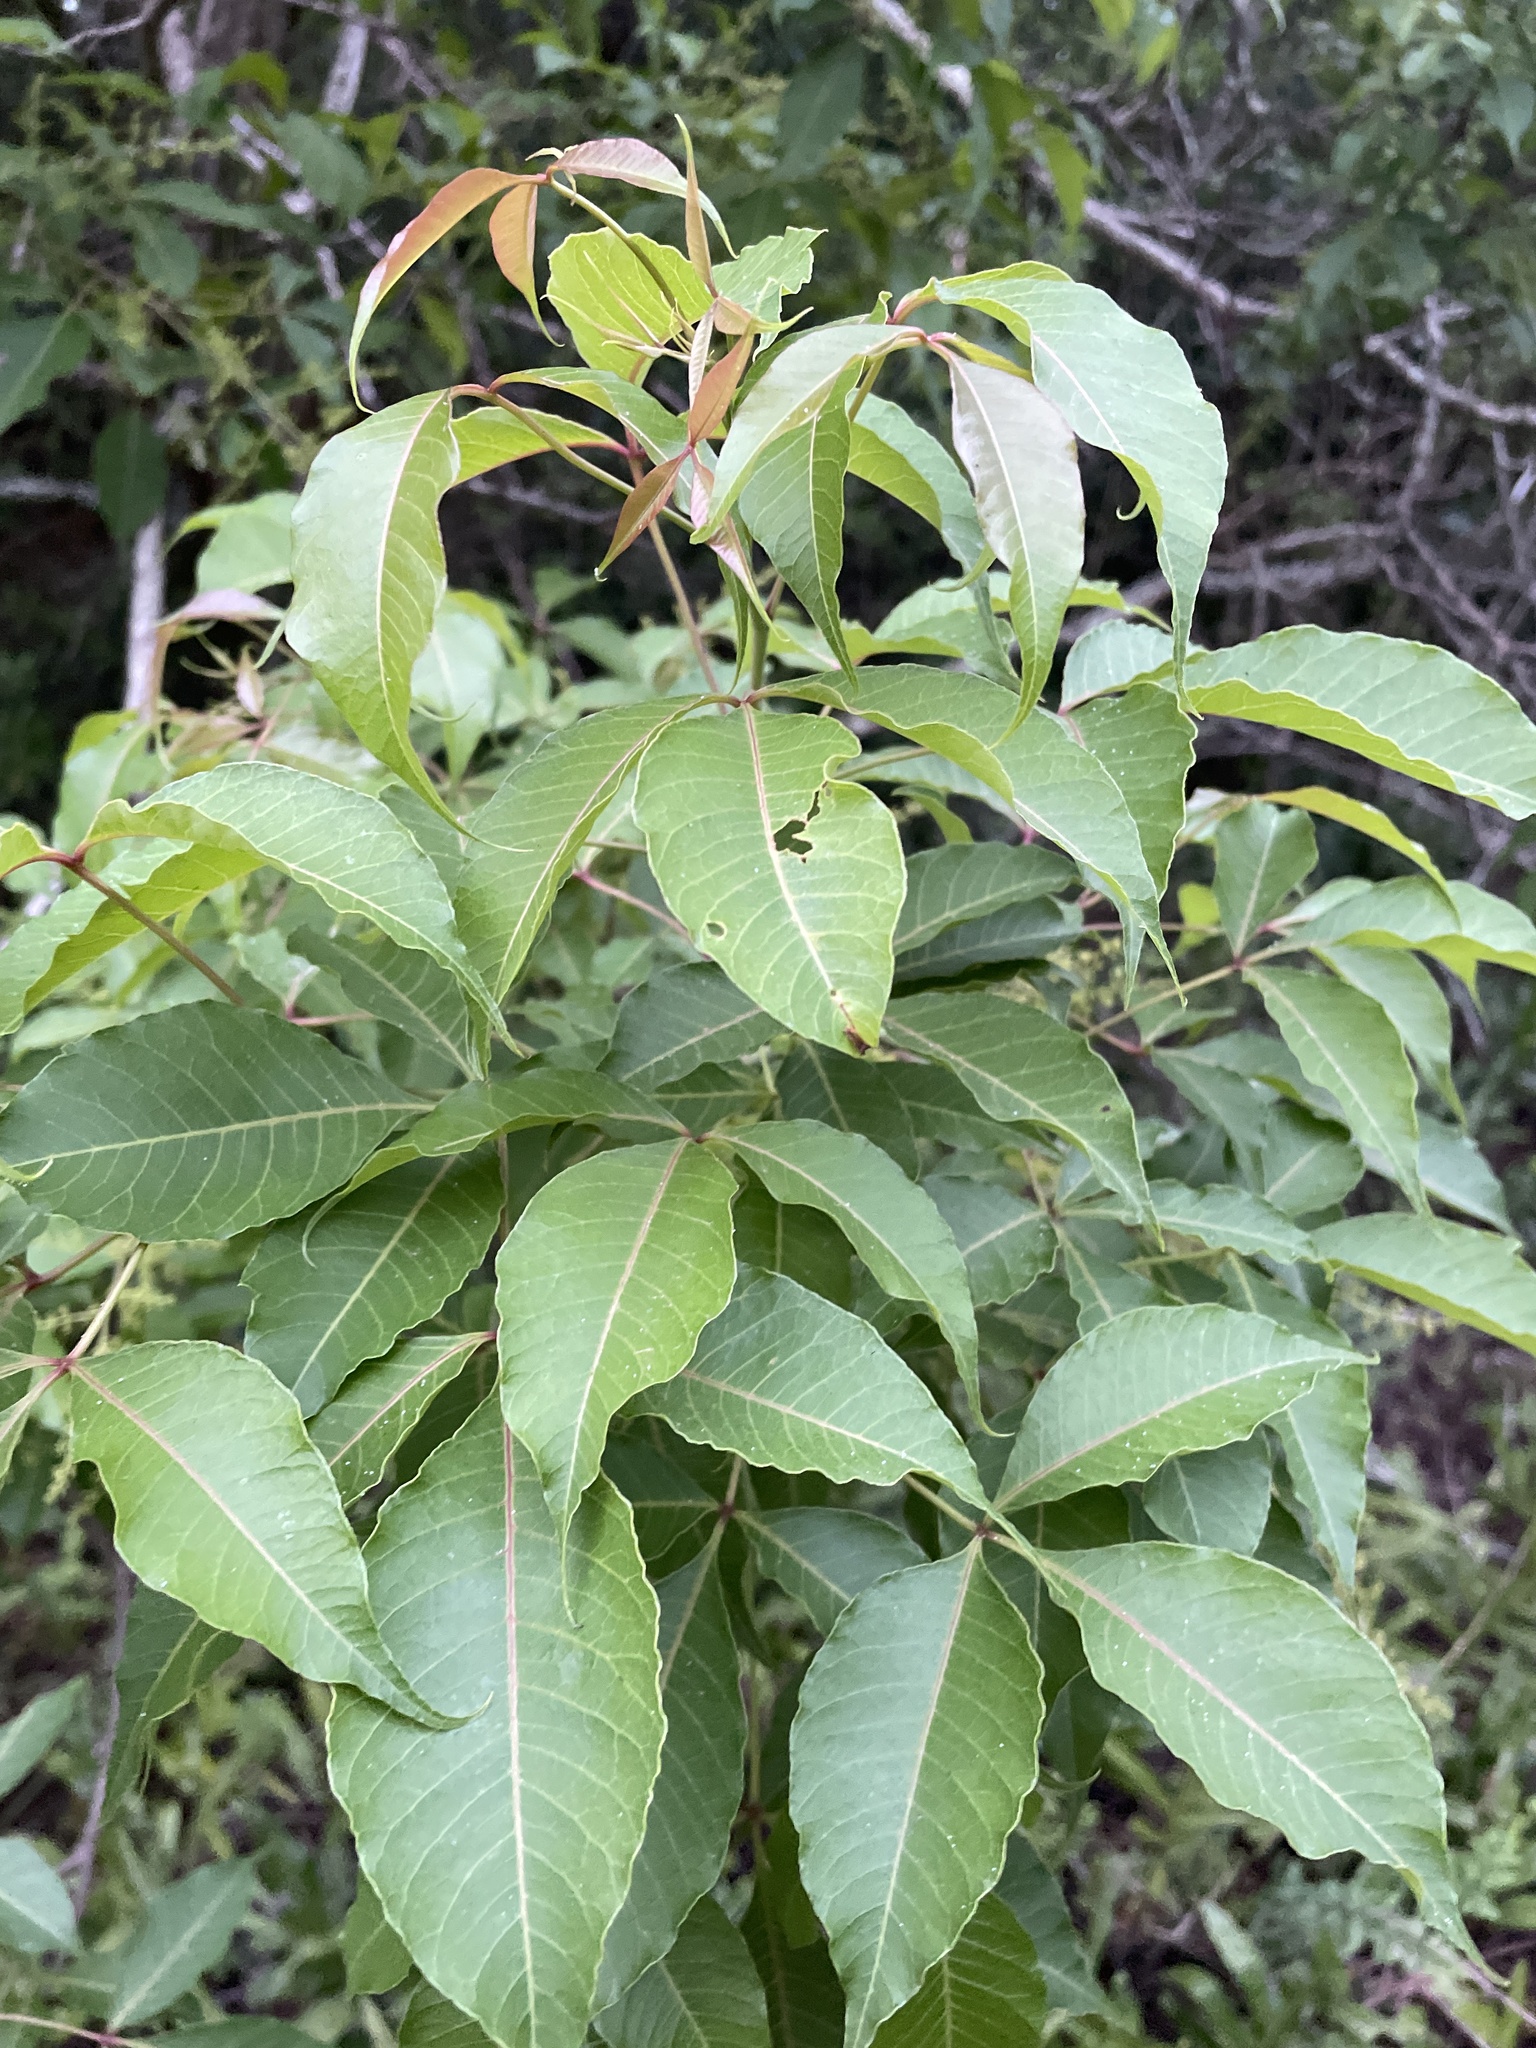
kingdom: Plantae
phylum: Tracheophyta
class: Magnoliopsida
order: Sapindales
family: Anacardiaceae
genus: Searsia
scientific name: Searsia chirindensis
